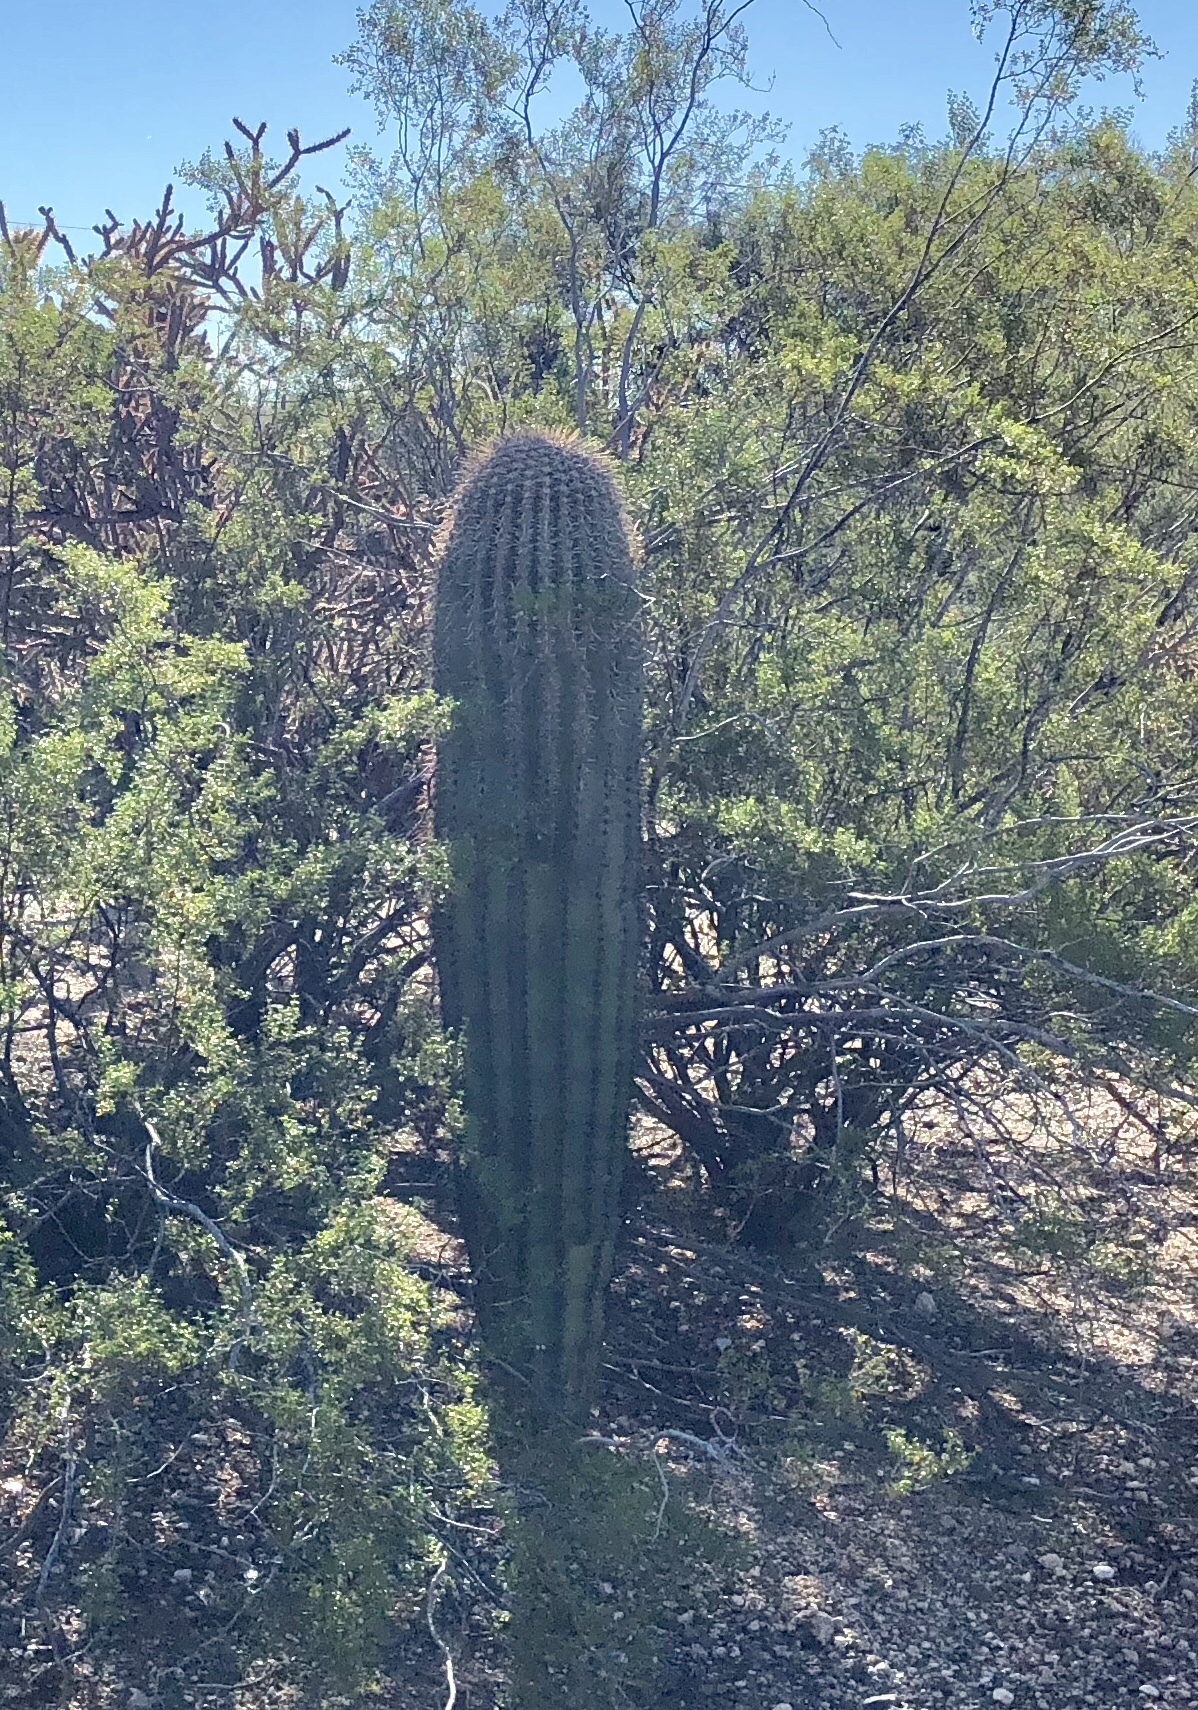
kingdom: Plantae
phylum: Tracheophyta
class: Magnoliopsida
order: Caryophyllales
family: Cactaceae
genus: Carnegiea
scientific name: Carnegiea gigantea
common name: Saguaro
